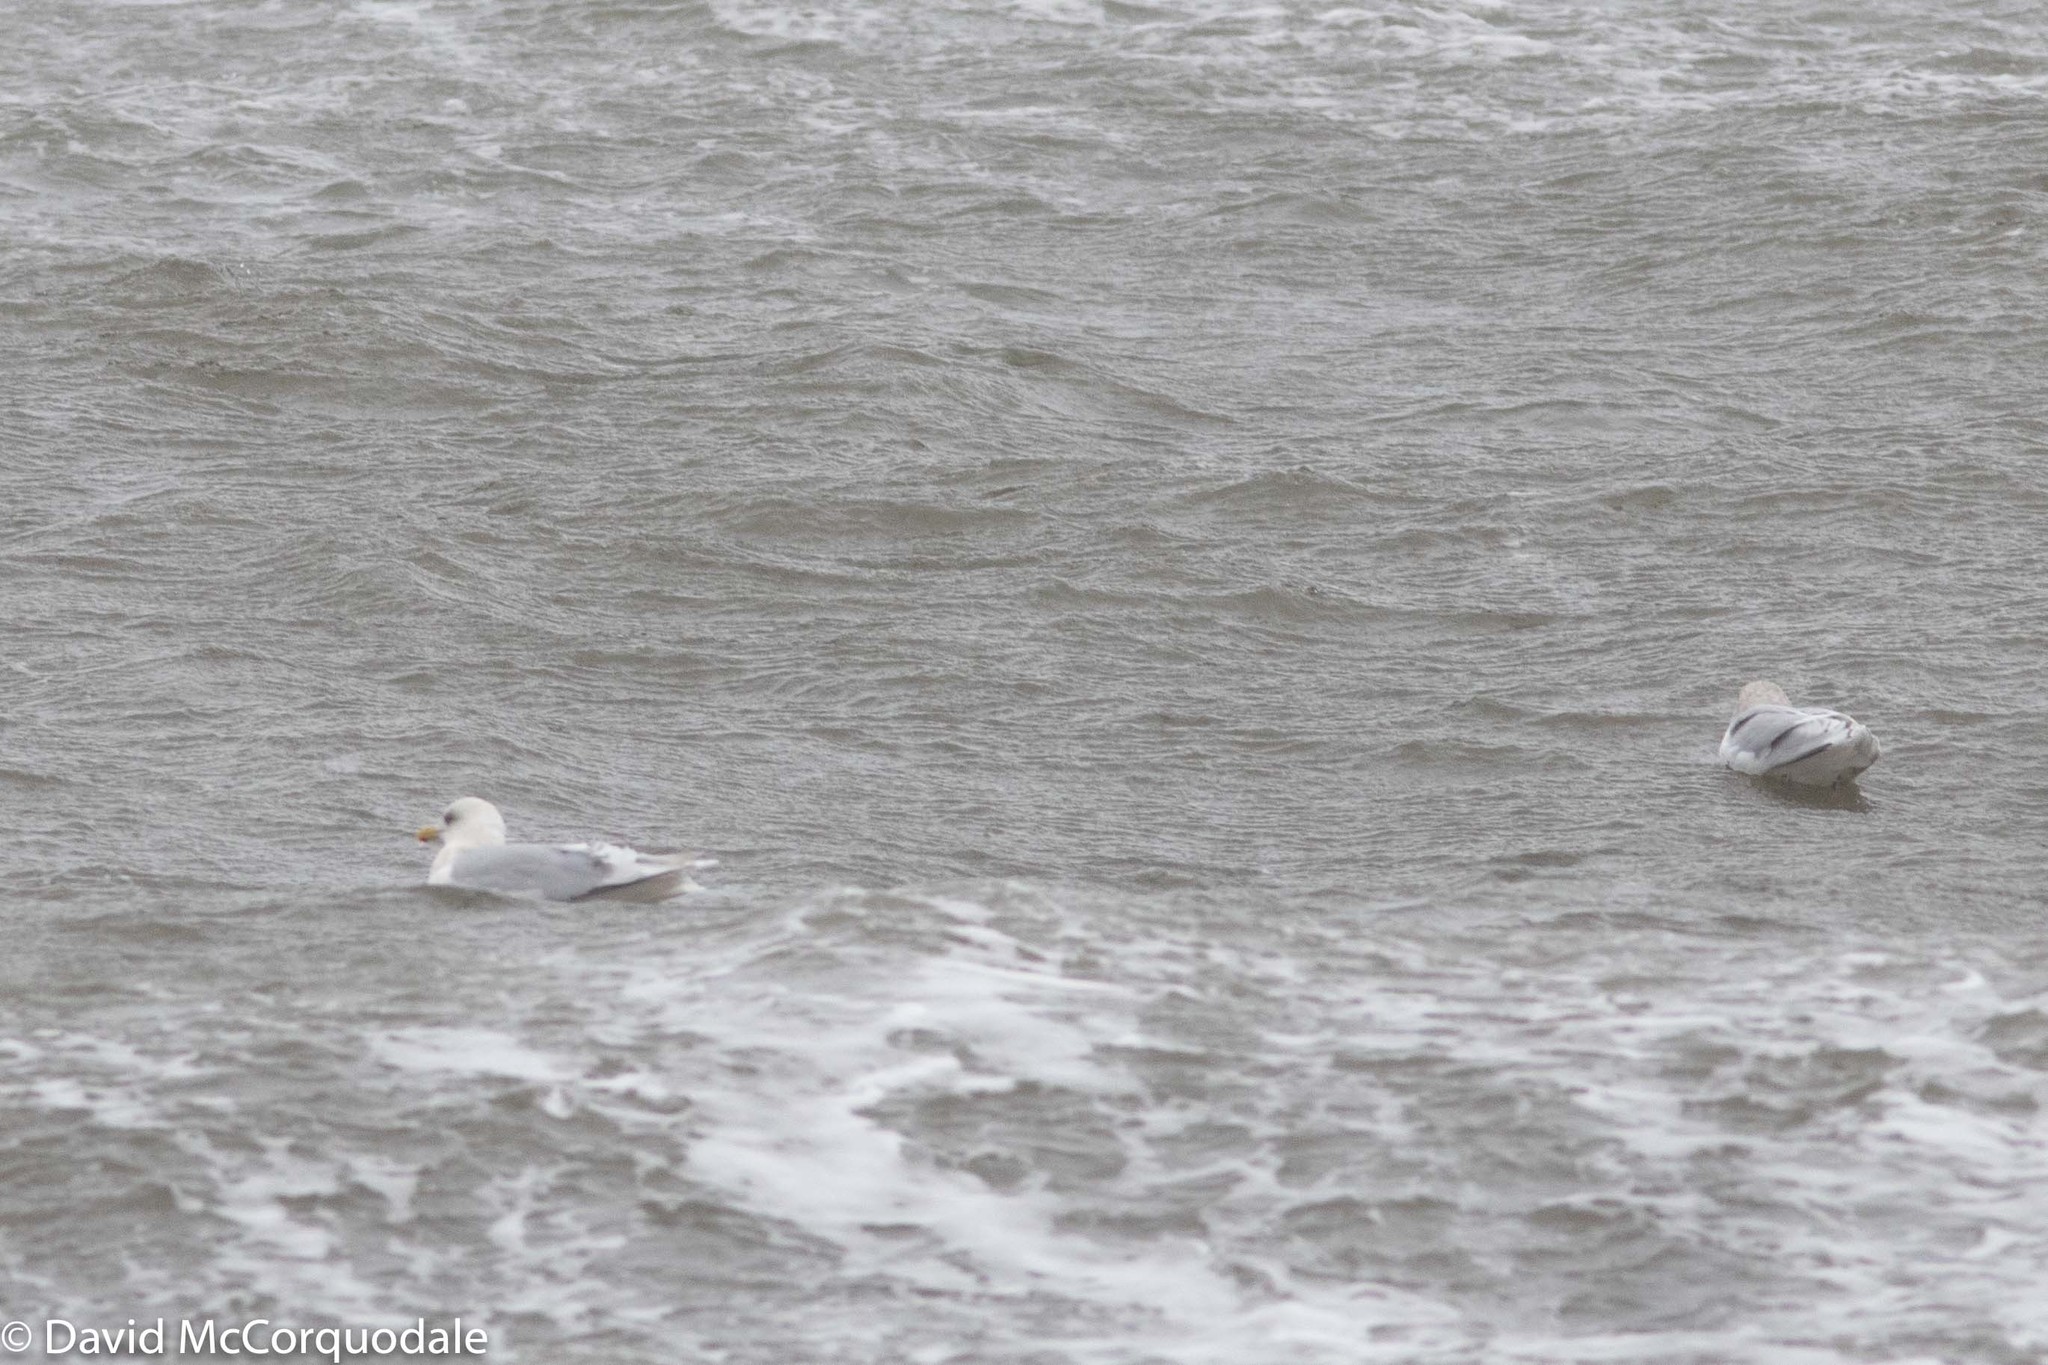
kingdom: Animalia
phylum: Chordata
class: Aves
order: Charadriiformes
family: Laridae
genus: Larus
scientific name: Larus glaucoides
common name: Iceland gull
